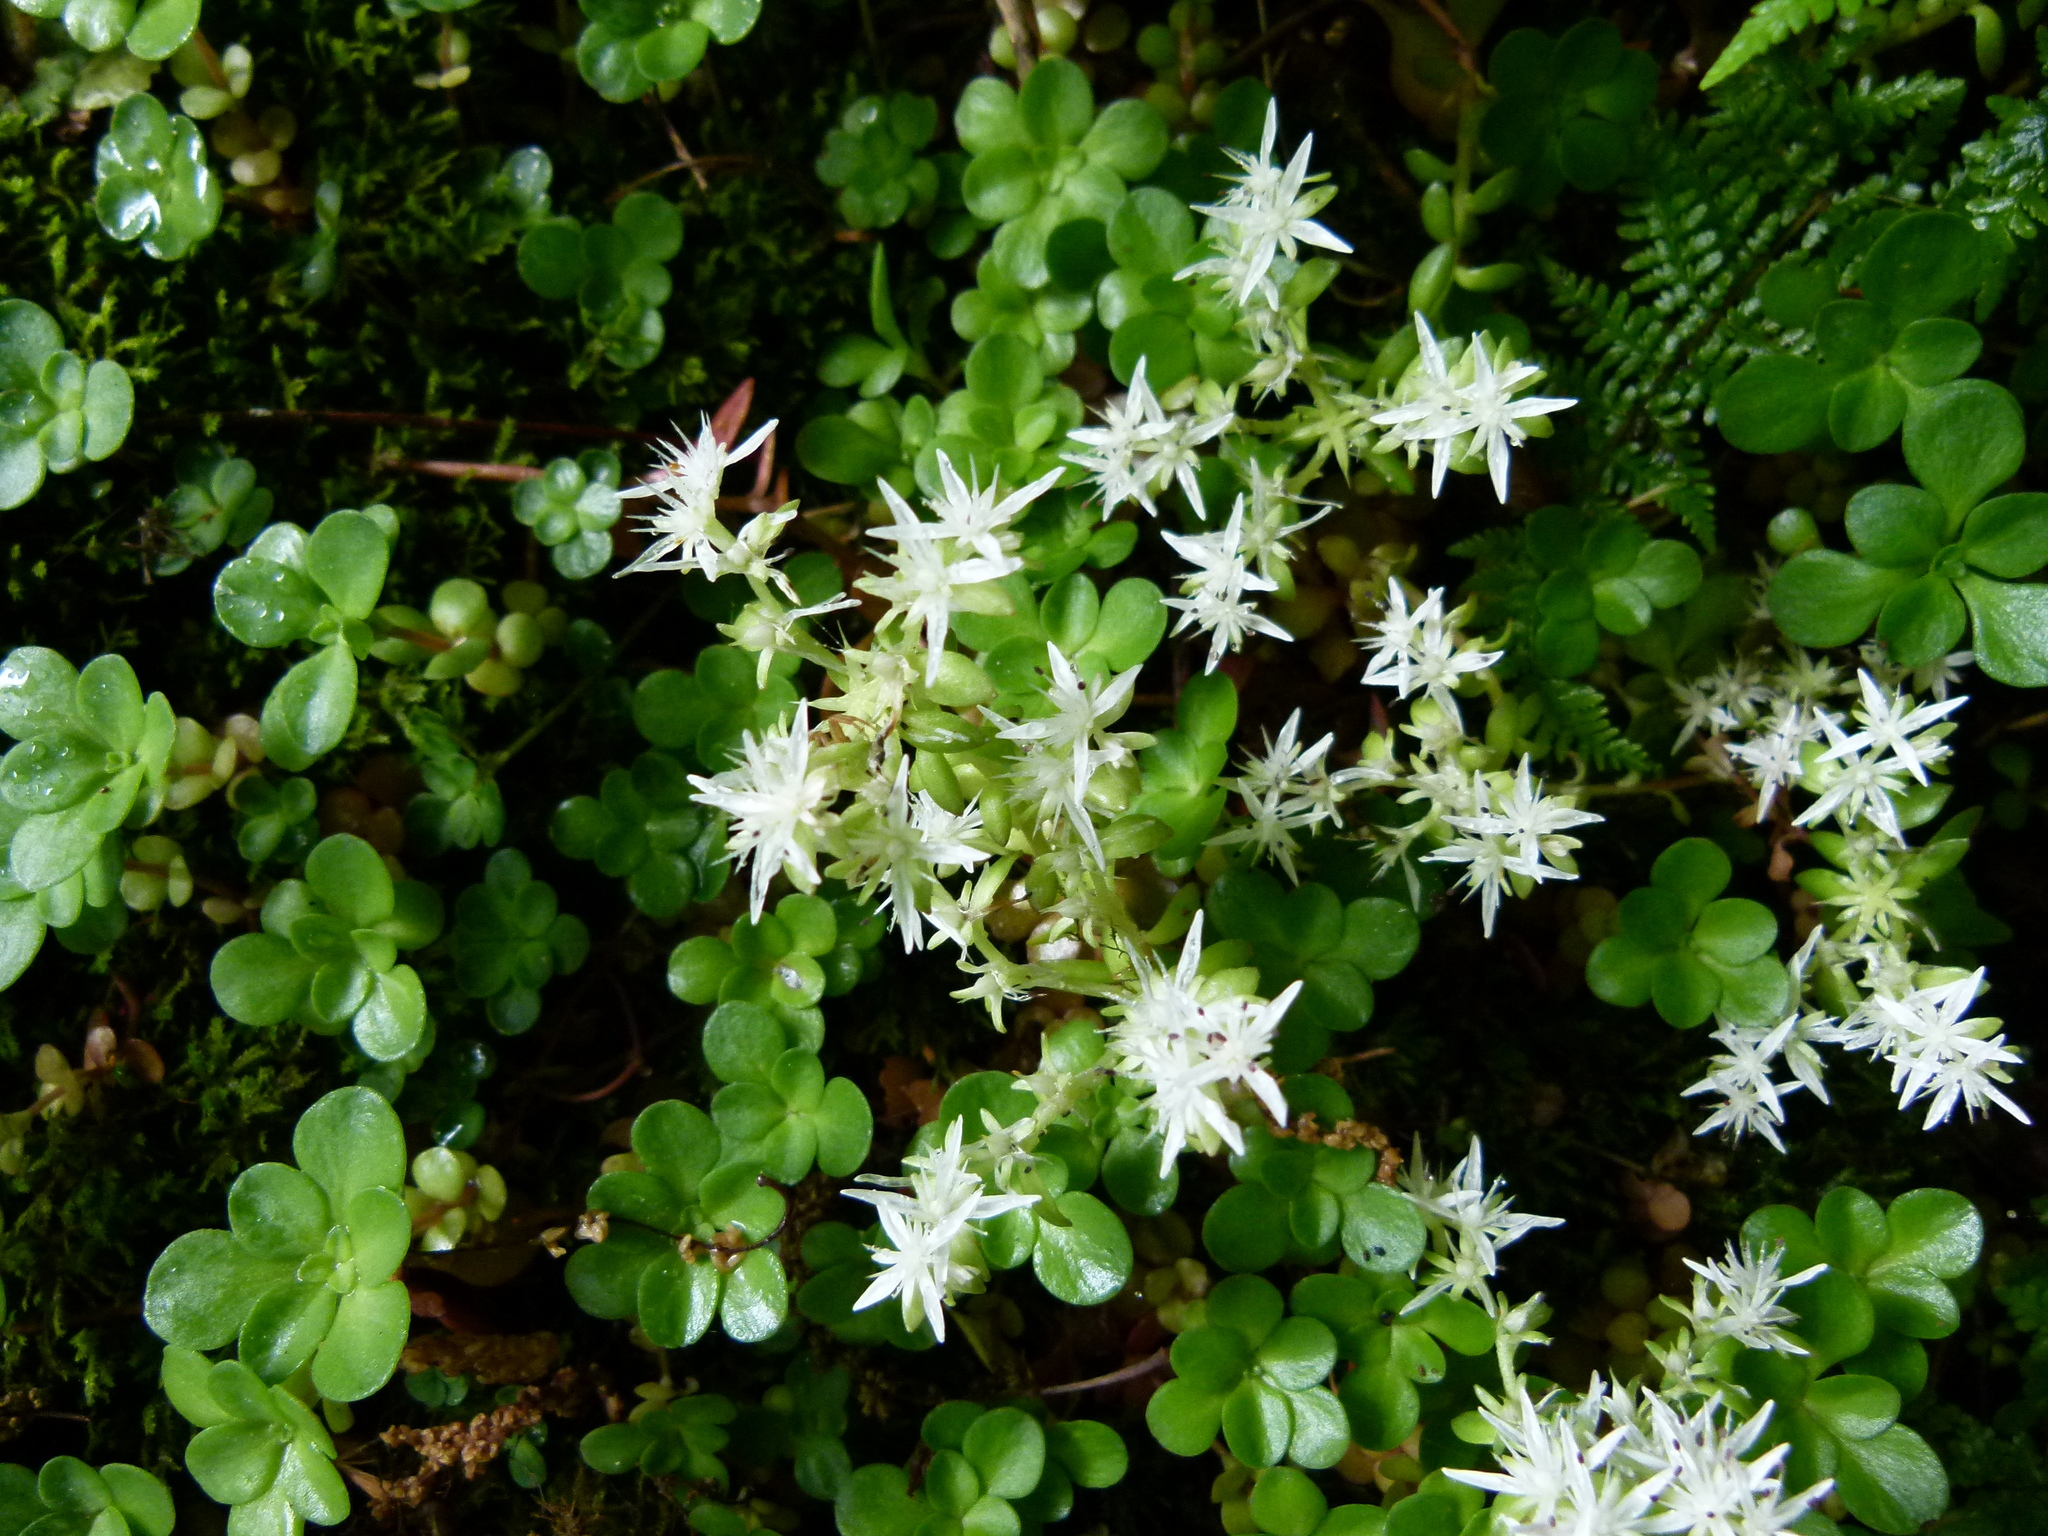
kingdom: Plantae
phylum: Tracheophyta
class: Magnoliopsida
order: Saxifragales
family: Crassulaceae
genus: Sedum
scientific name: Sedum ternatum
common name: Wild stonecrop
